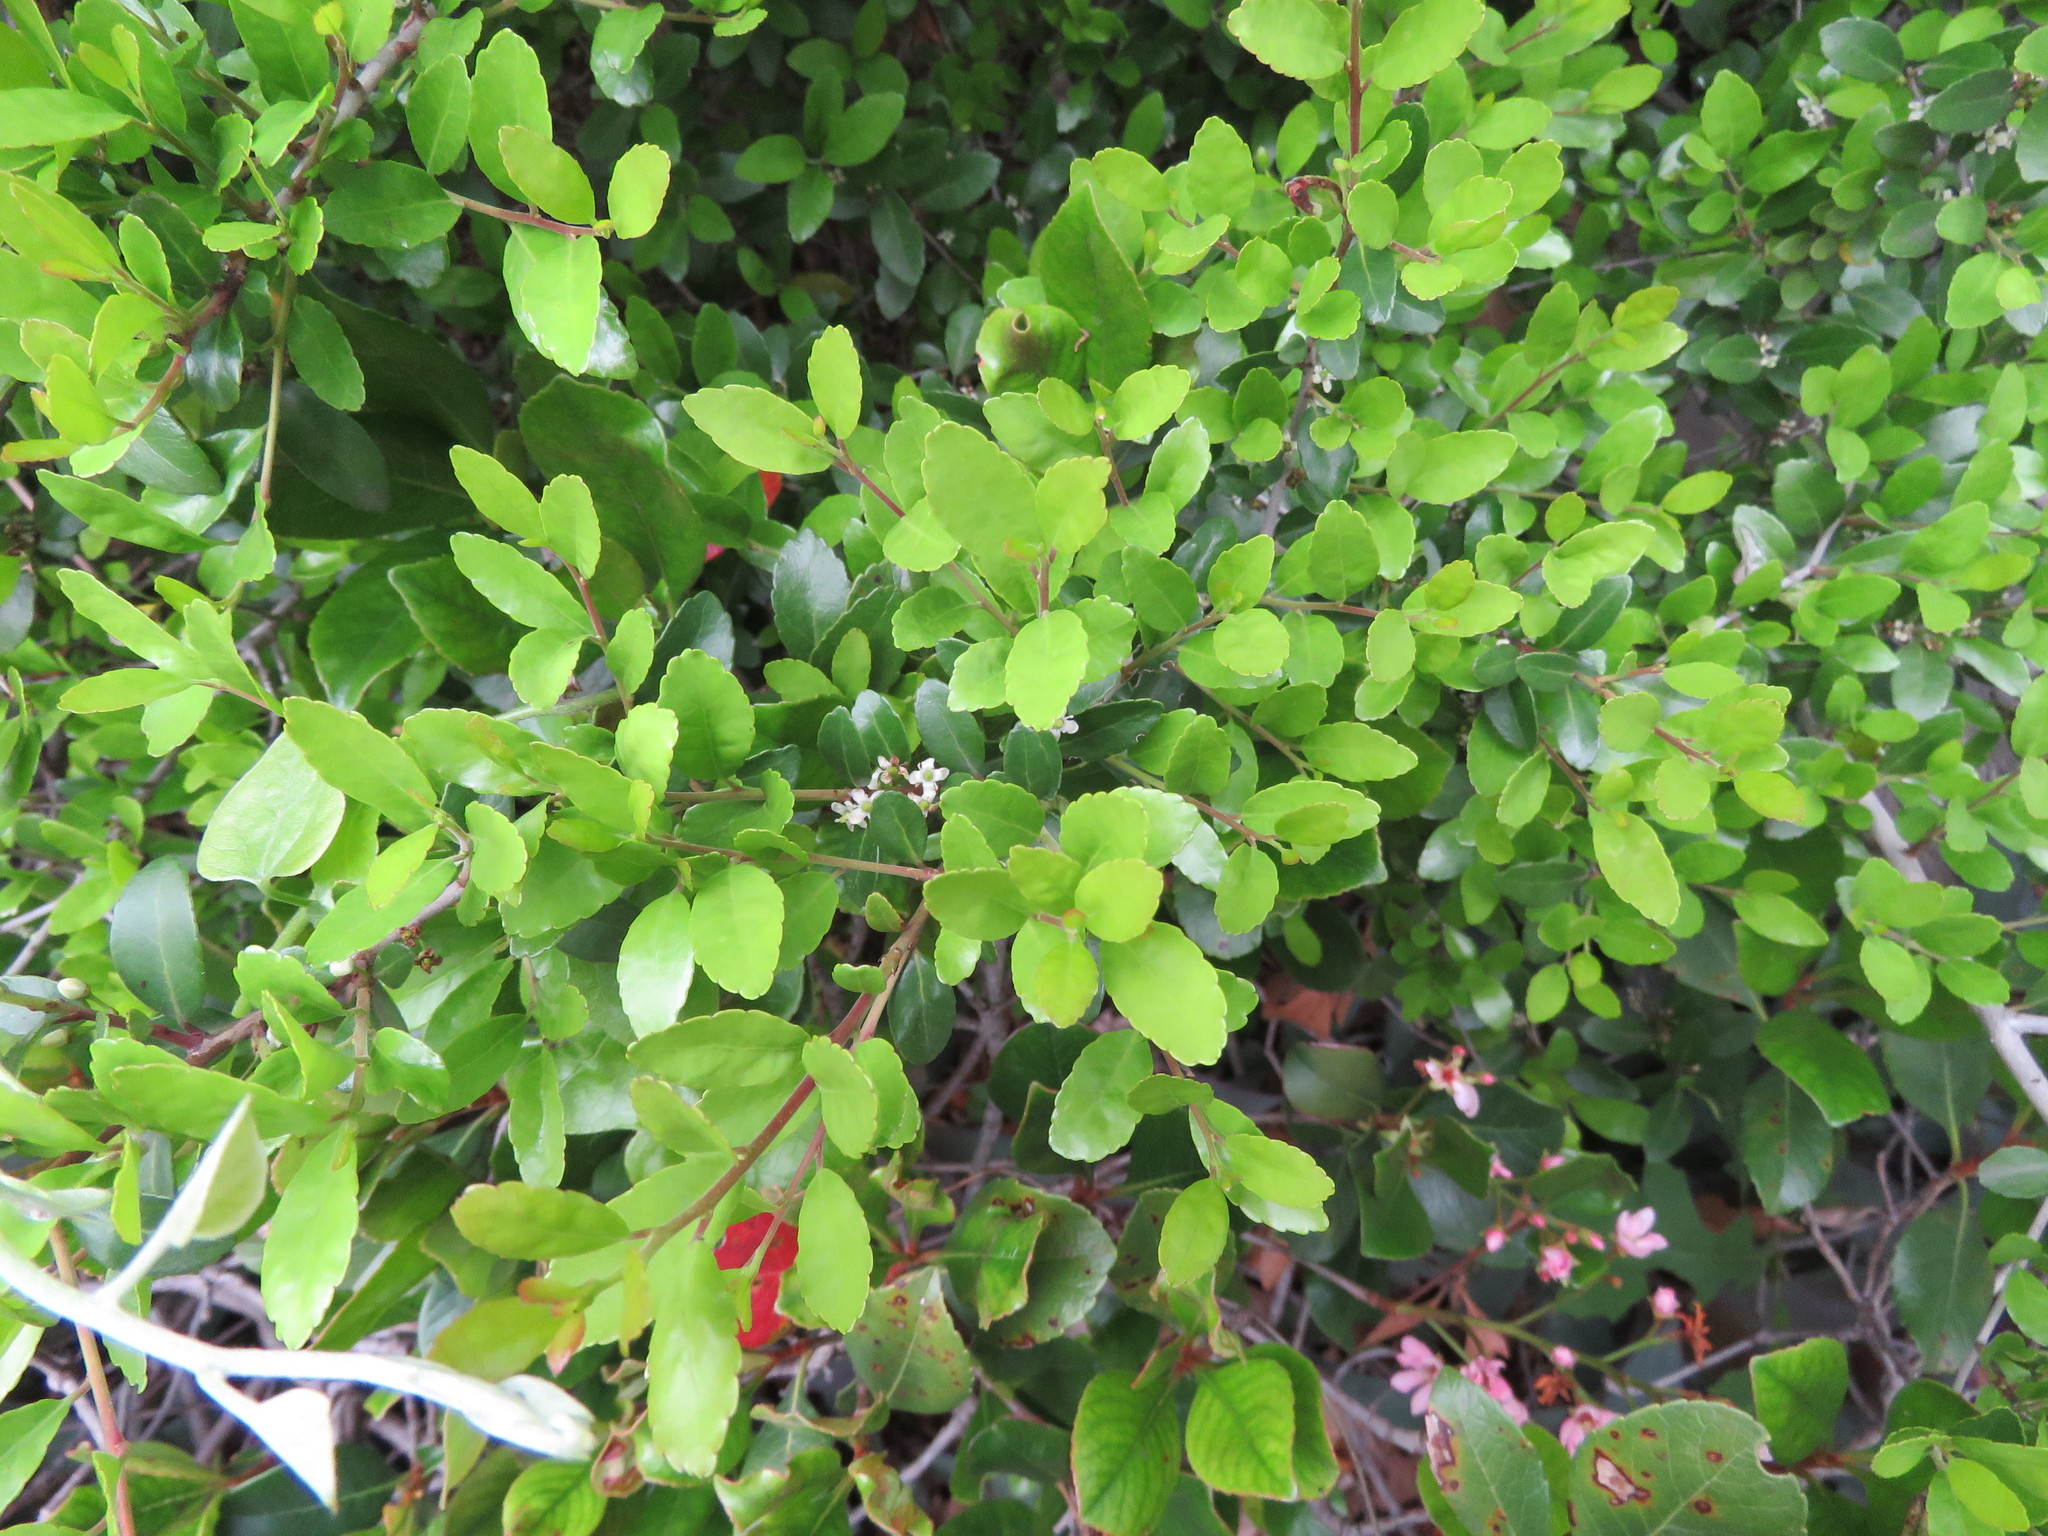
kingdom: Plantae
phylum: Tracheophyta
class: Magnoliopsida
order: Aquifoliales
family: Aquifoliaceae
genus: Ilex
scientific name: Ilex vomitoria
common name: Yaupon holly
